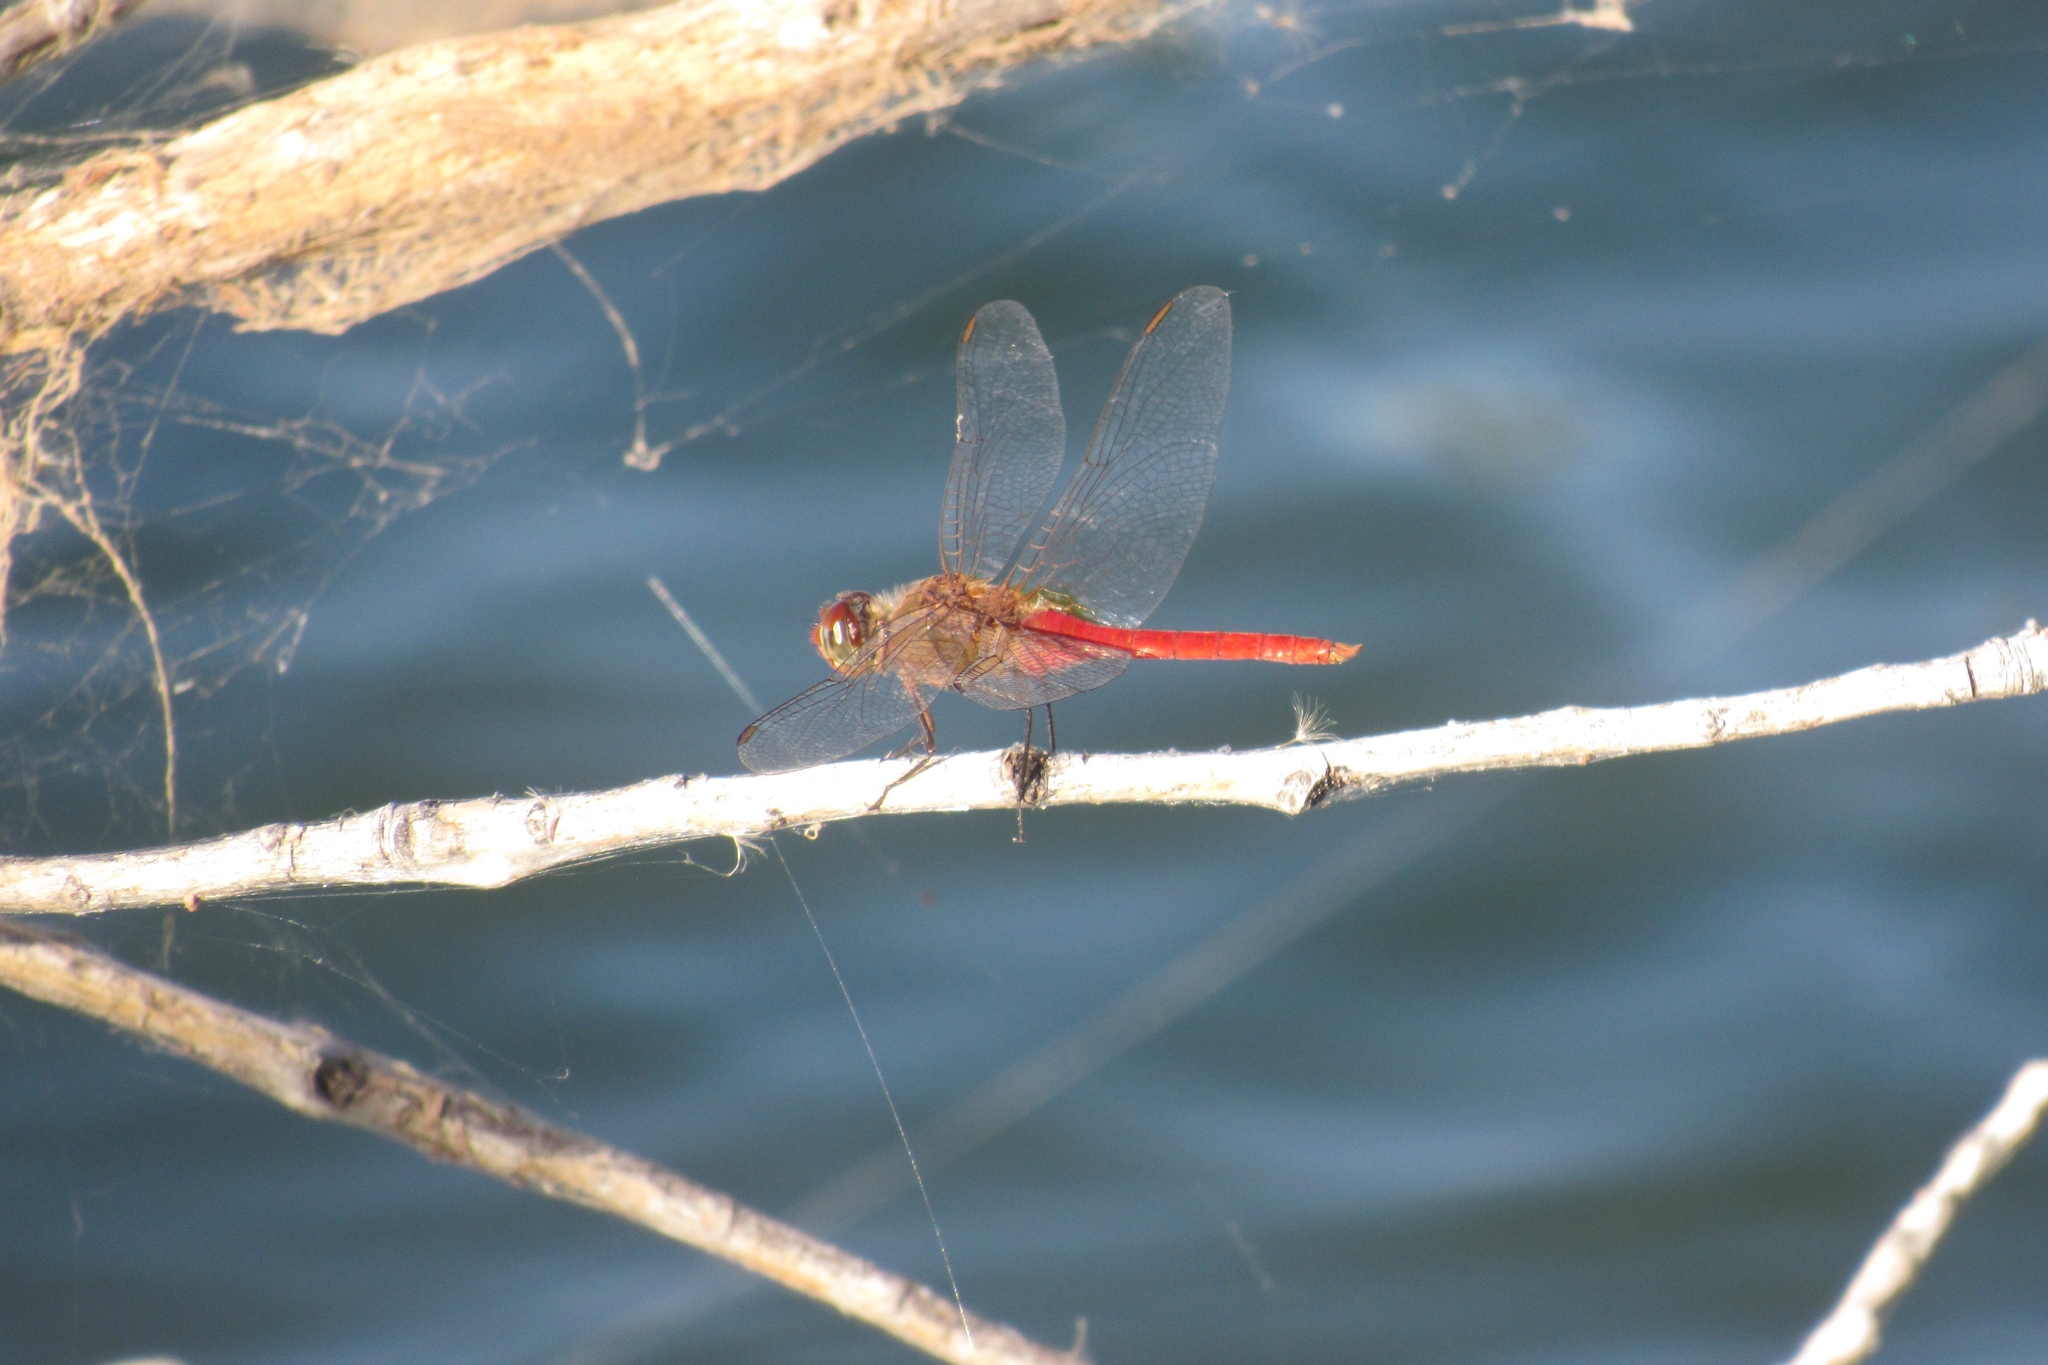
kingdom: Animalia
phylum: Arthropoda
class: Insecta
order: Odonata
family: Libellulidae
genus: Brachymesia
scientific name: Brachymesia furcata
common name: Red-taled pennant
